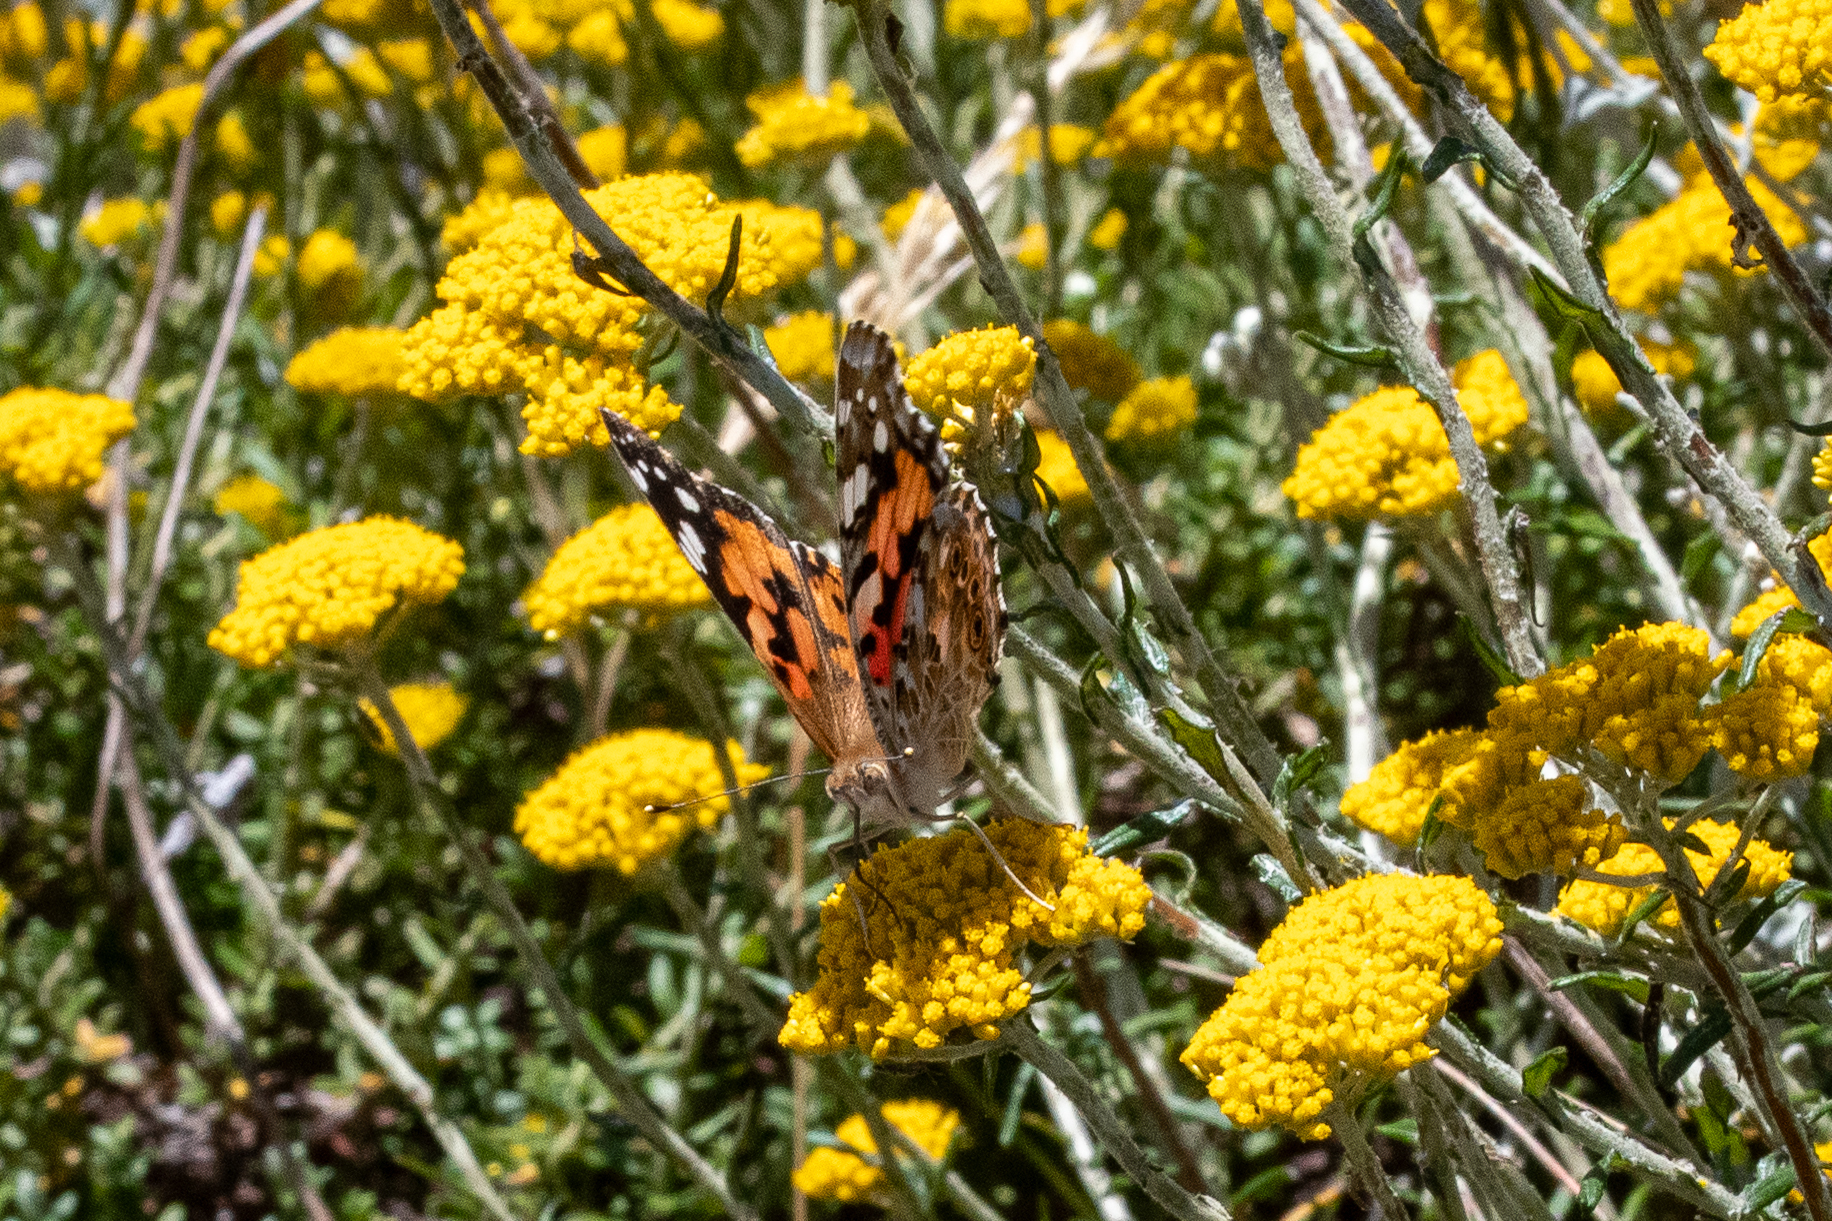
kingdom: Animalia
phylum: Arthropoda
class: Insecta
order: Lepidoptera
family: Nymphalidae
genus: Vanessa
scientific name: Vanessa cardui
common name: Painted lady
